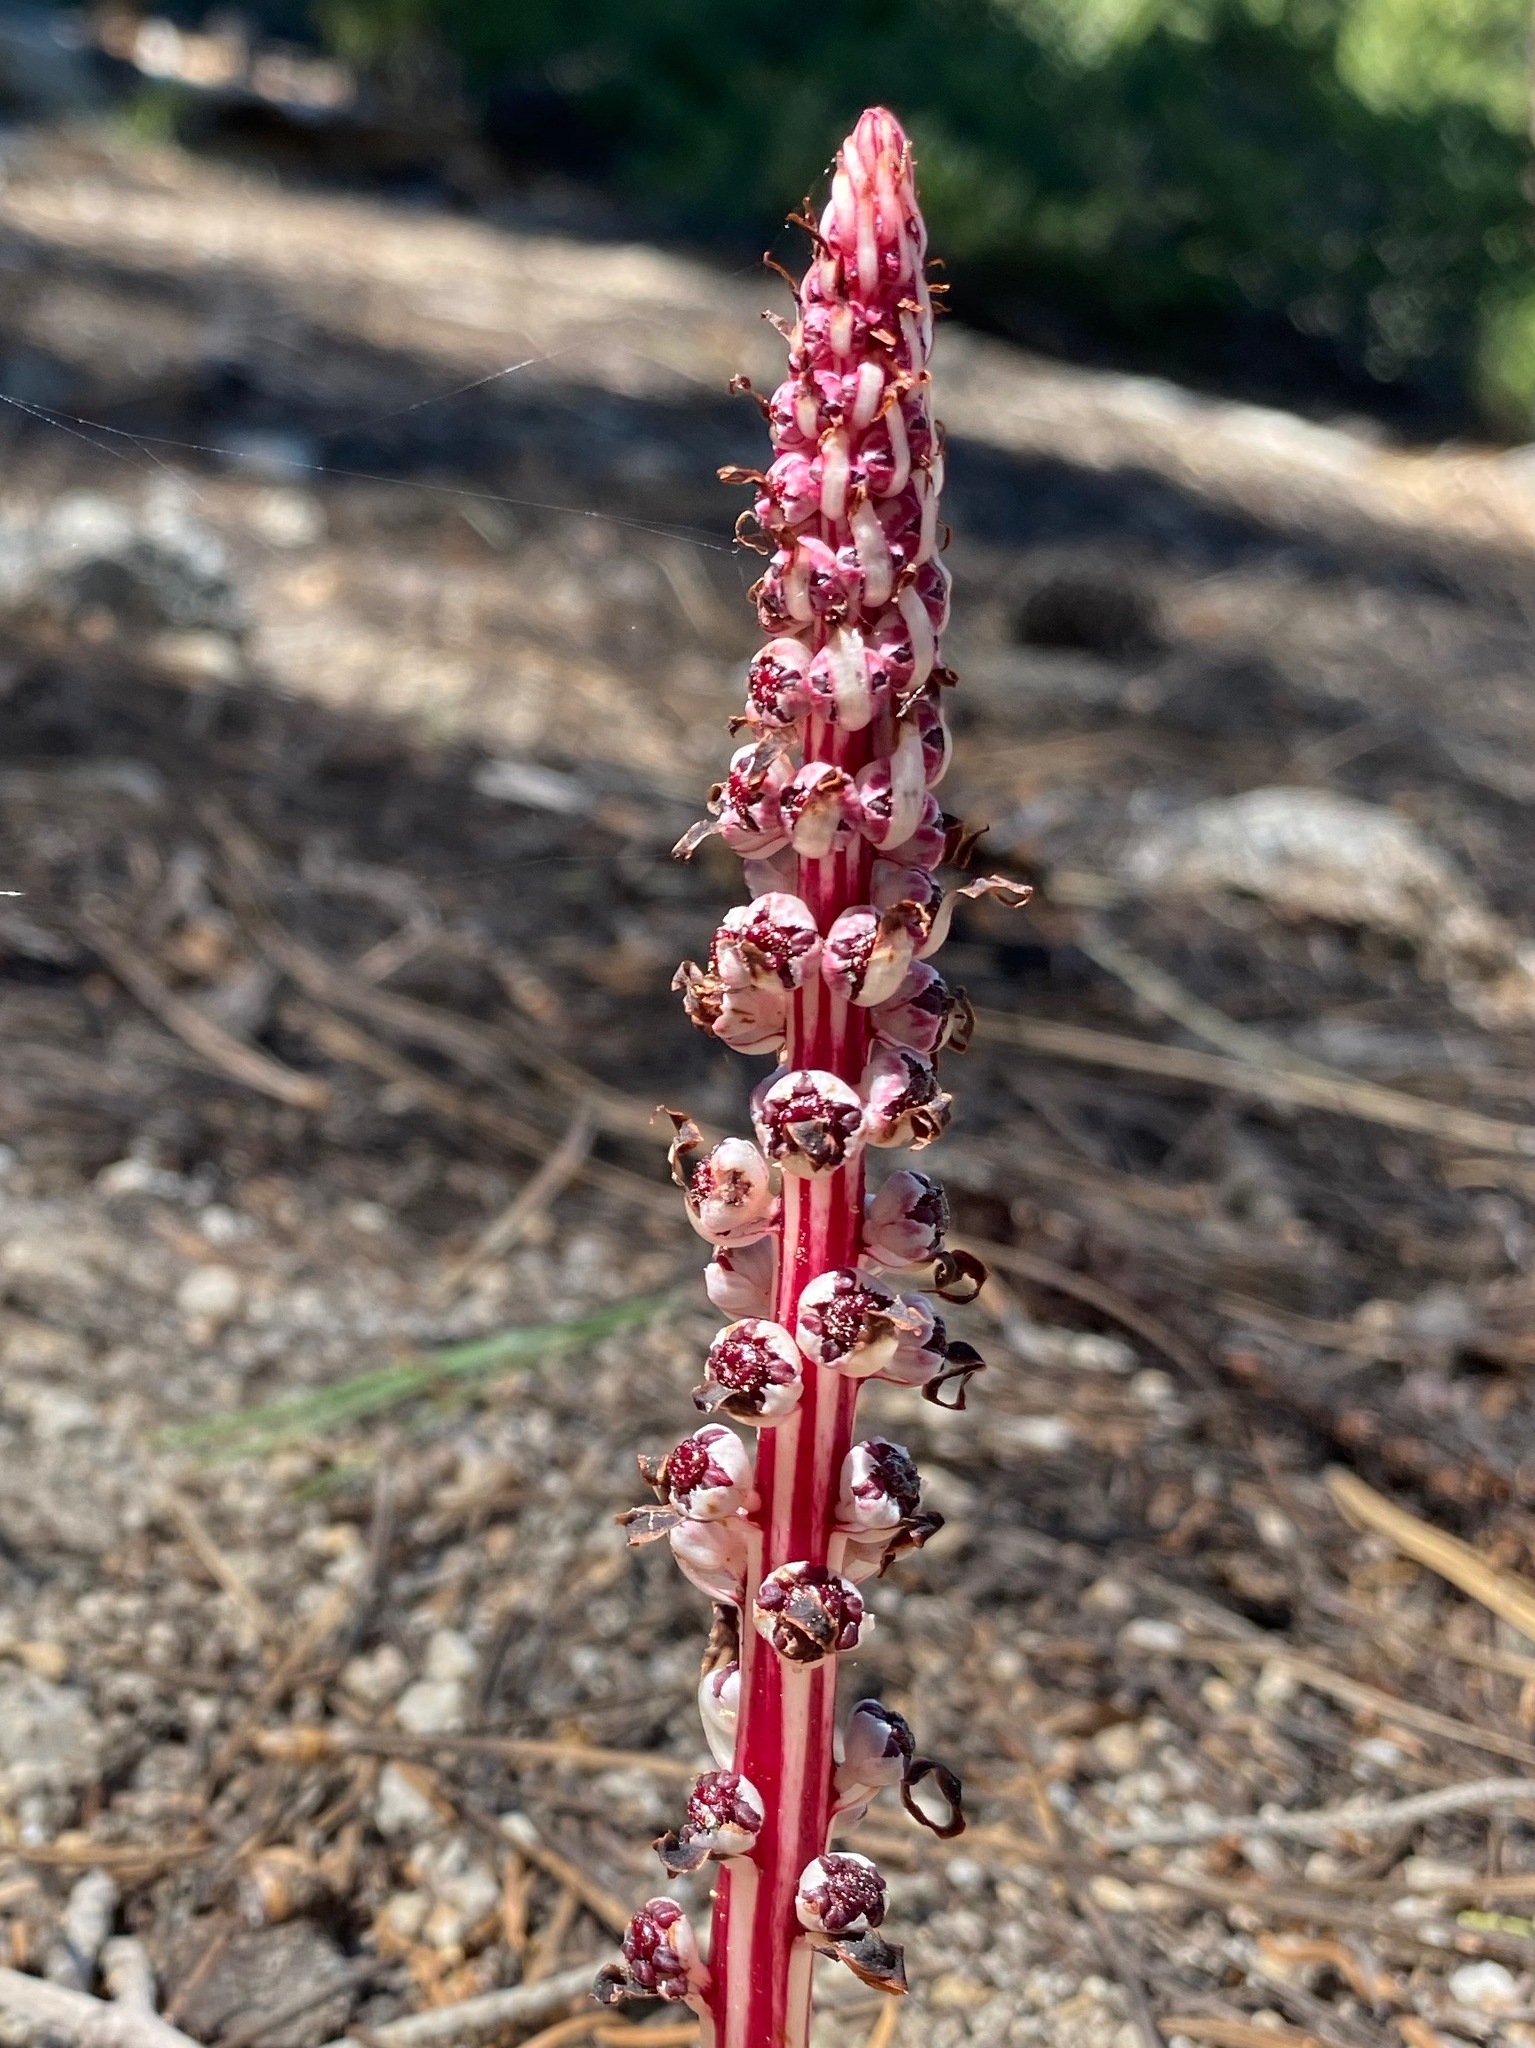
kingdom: Plantae
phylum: Tracheophyta
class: Magnoliopsida
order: Ericales
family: Ericaceae
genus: Allotropa
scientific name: Allotropa virgata
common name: Candy-striped allotropa
